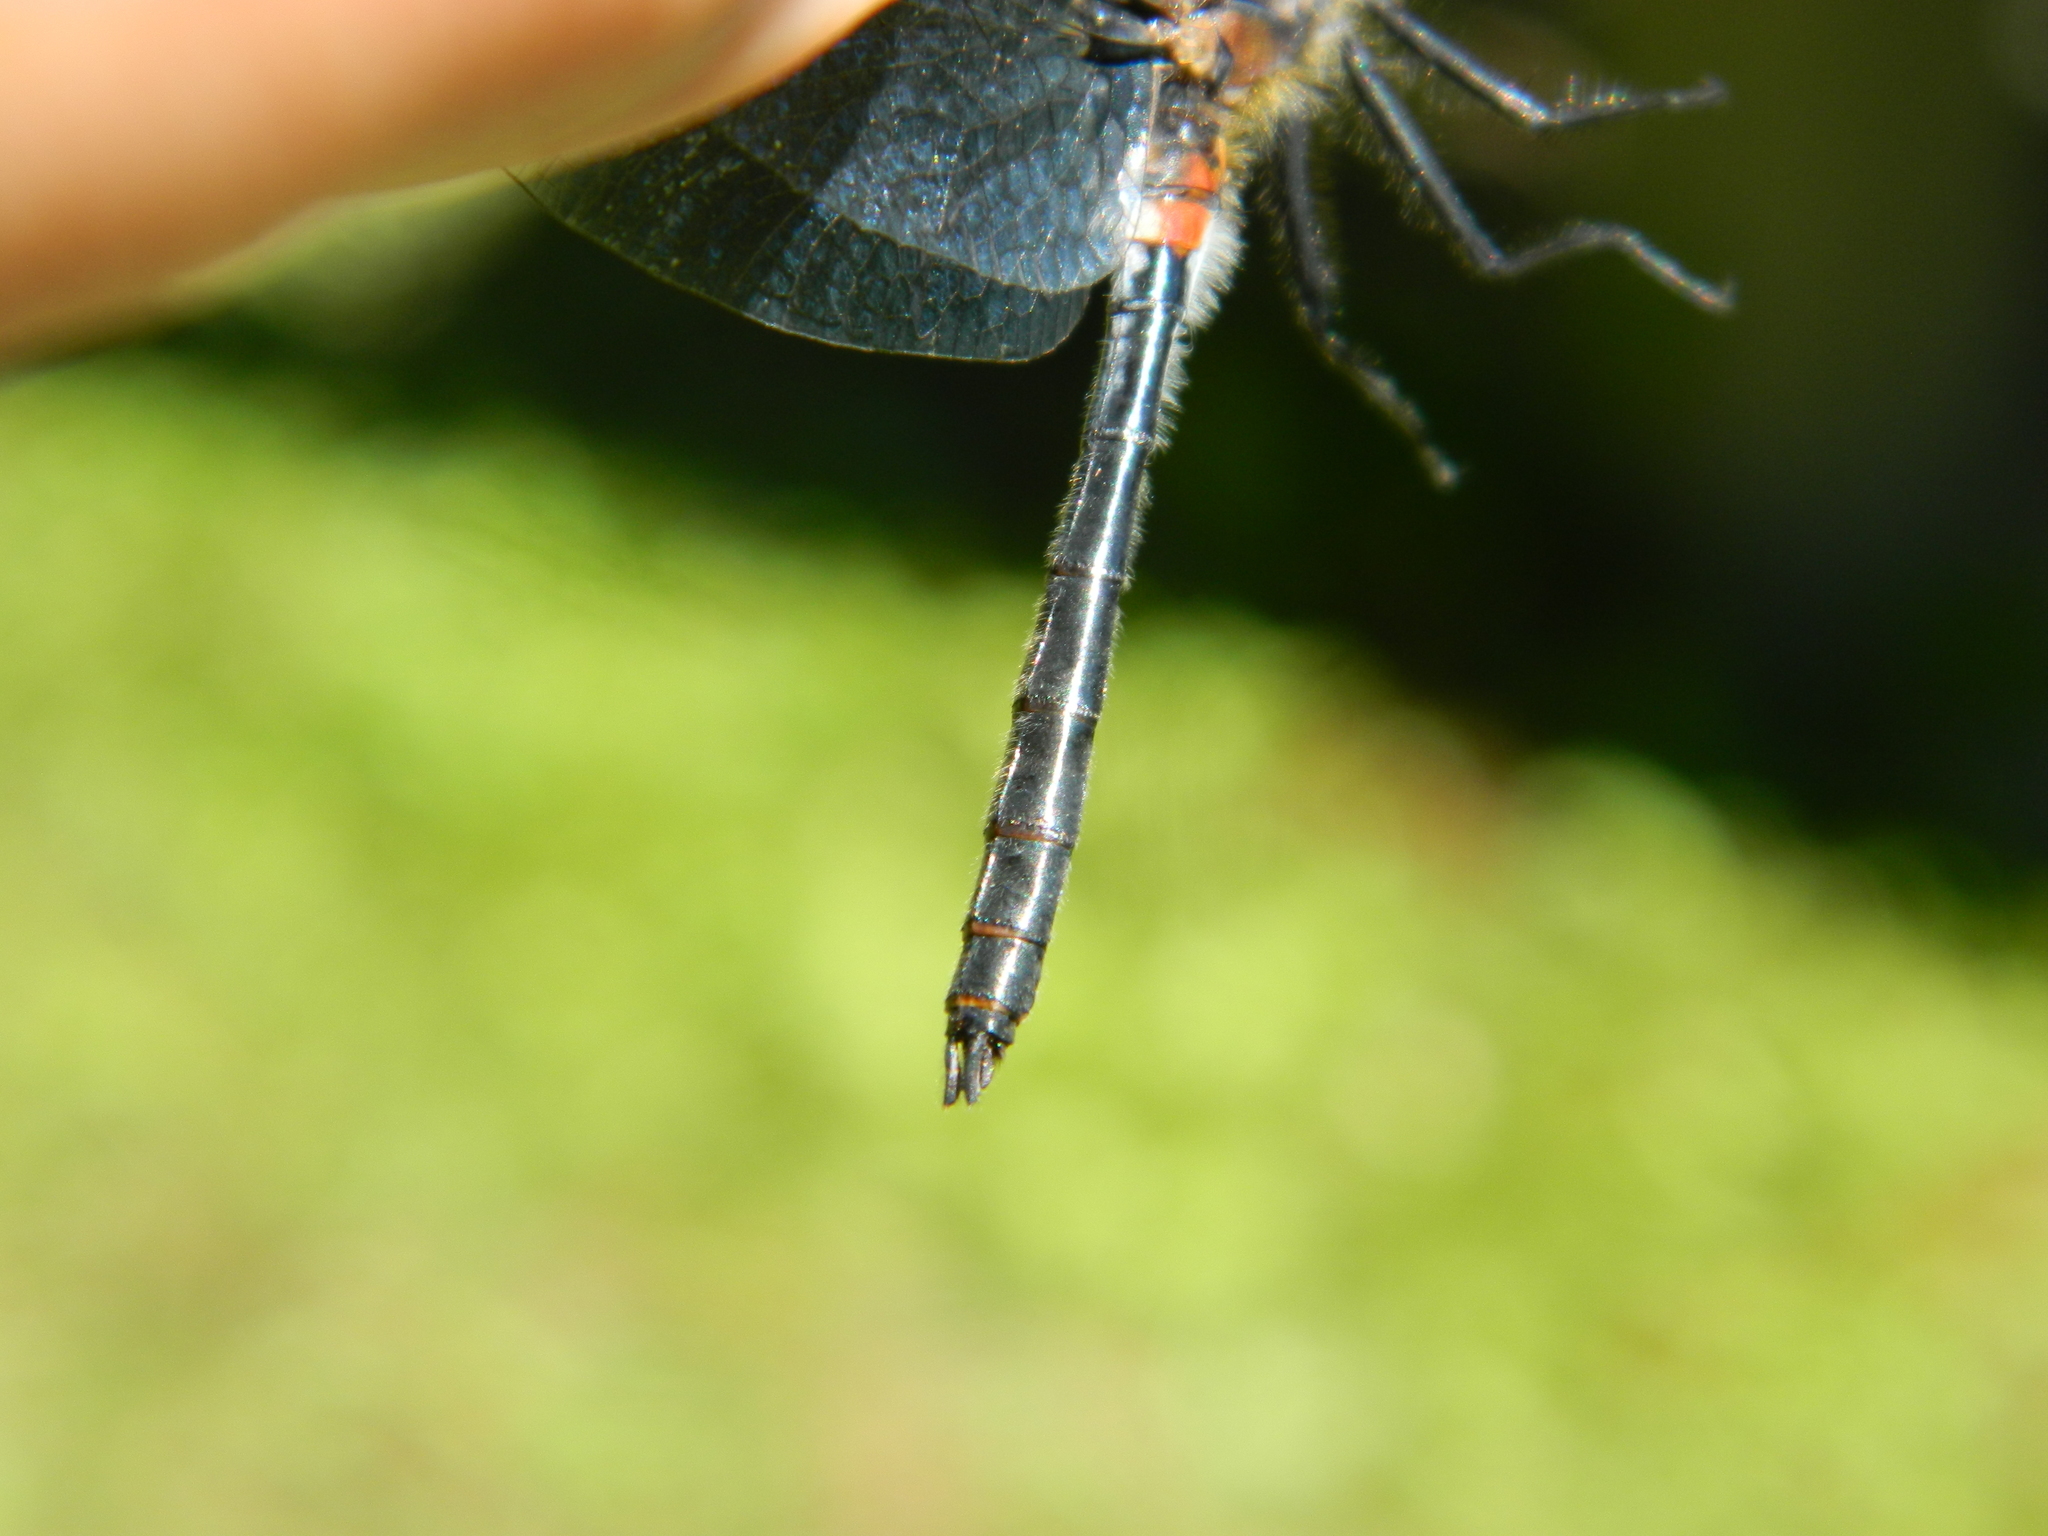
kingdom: Animalia
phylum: Arthropoda
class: Insecta
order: Odonata
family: Libellulidae
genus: Leucorrhinia
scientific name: Leucorrhinia proxima
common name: Belted whiteface
